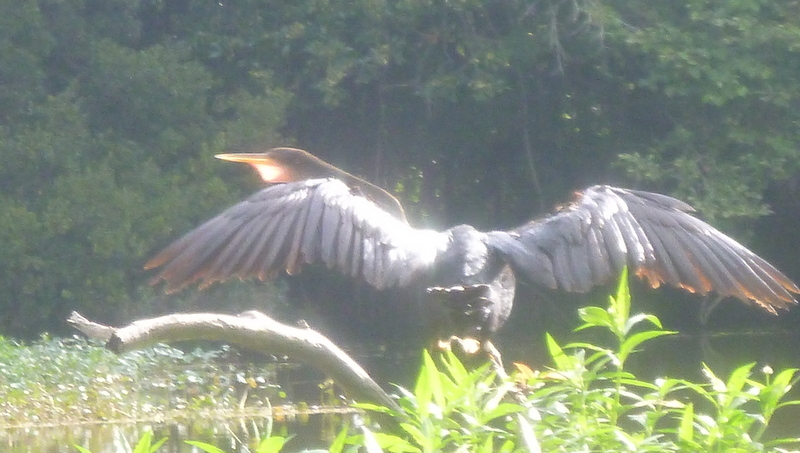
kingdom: Animalia
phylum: Chordata
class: Aves
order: Suliformes
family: Anhingidae
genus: Anhinga
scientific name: Anhinga anhinga
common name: Anhinga
